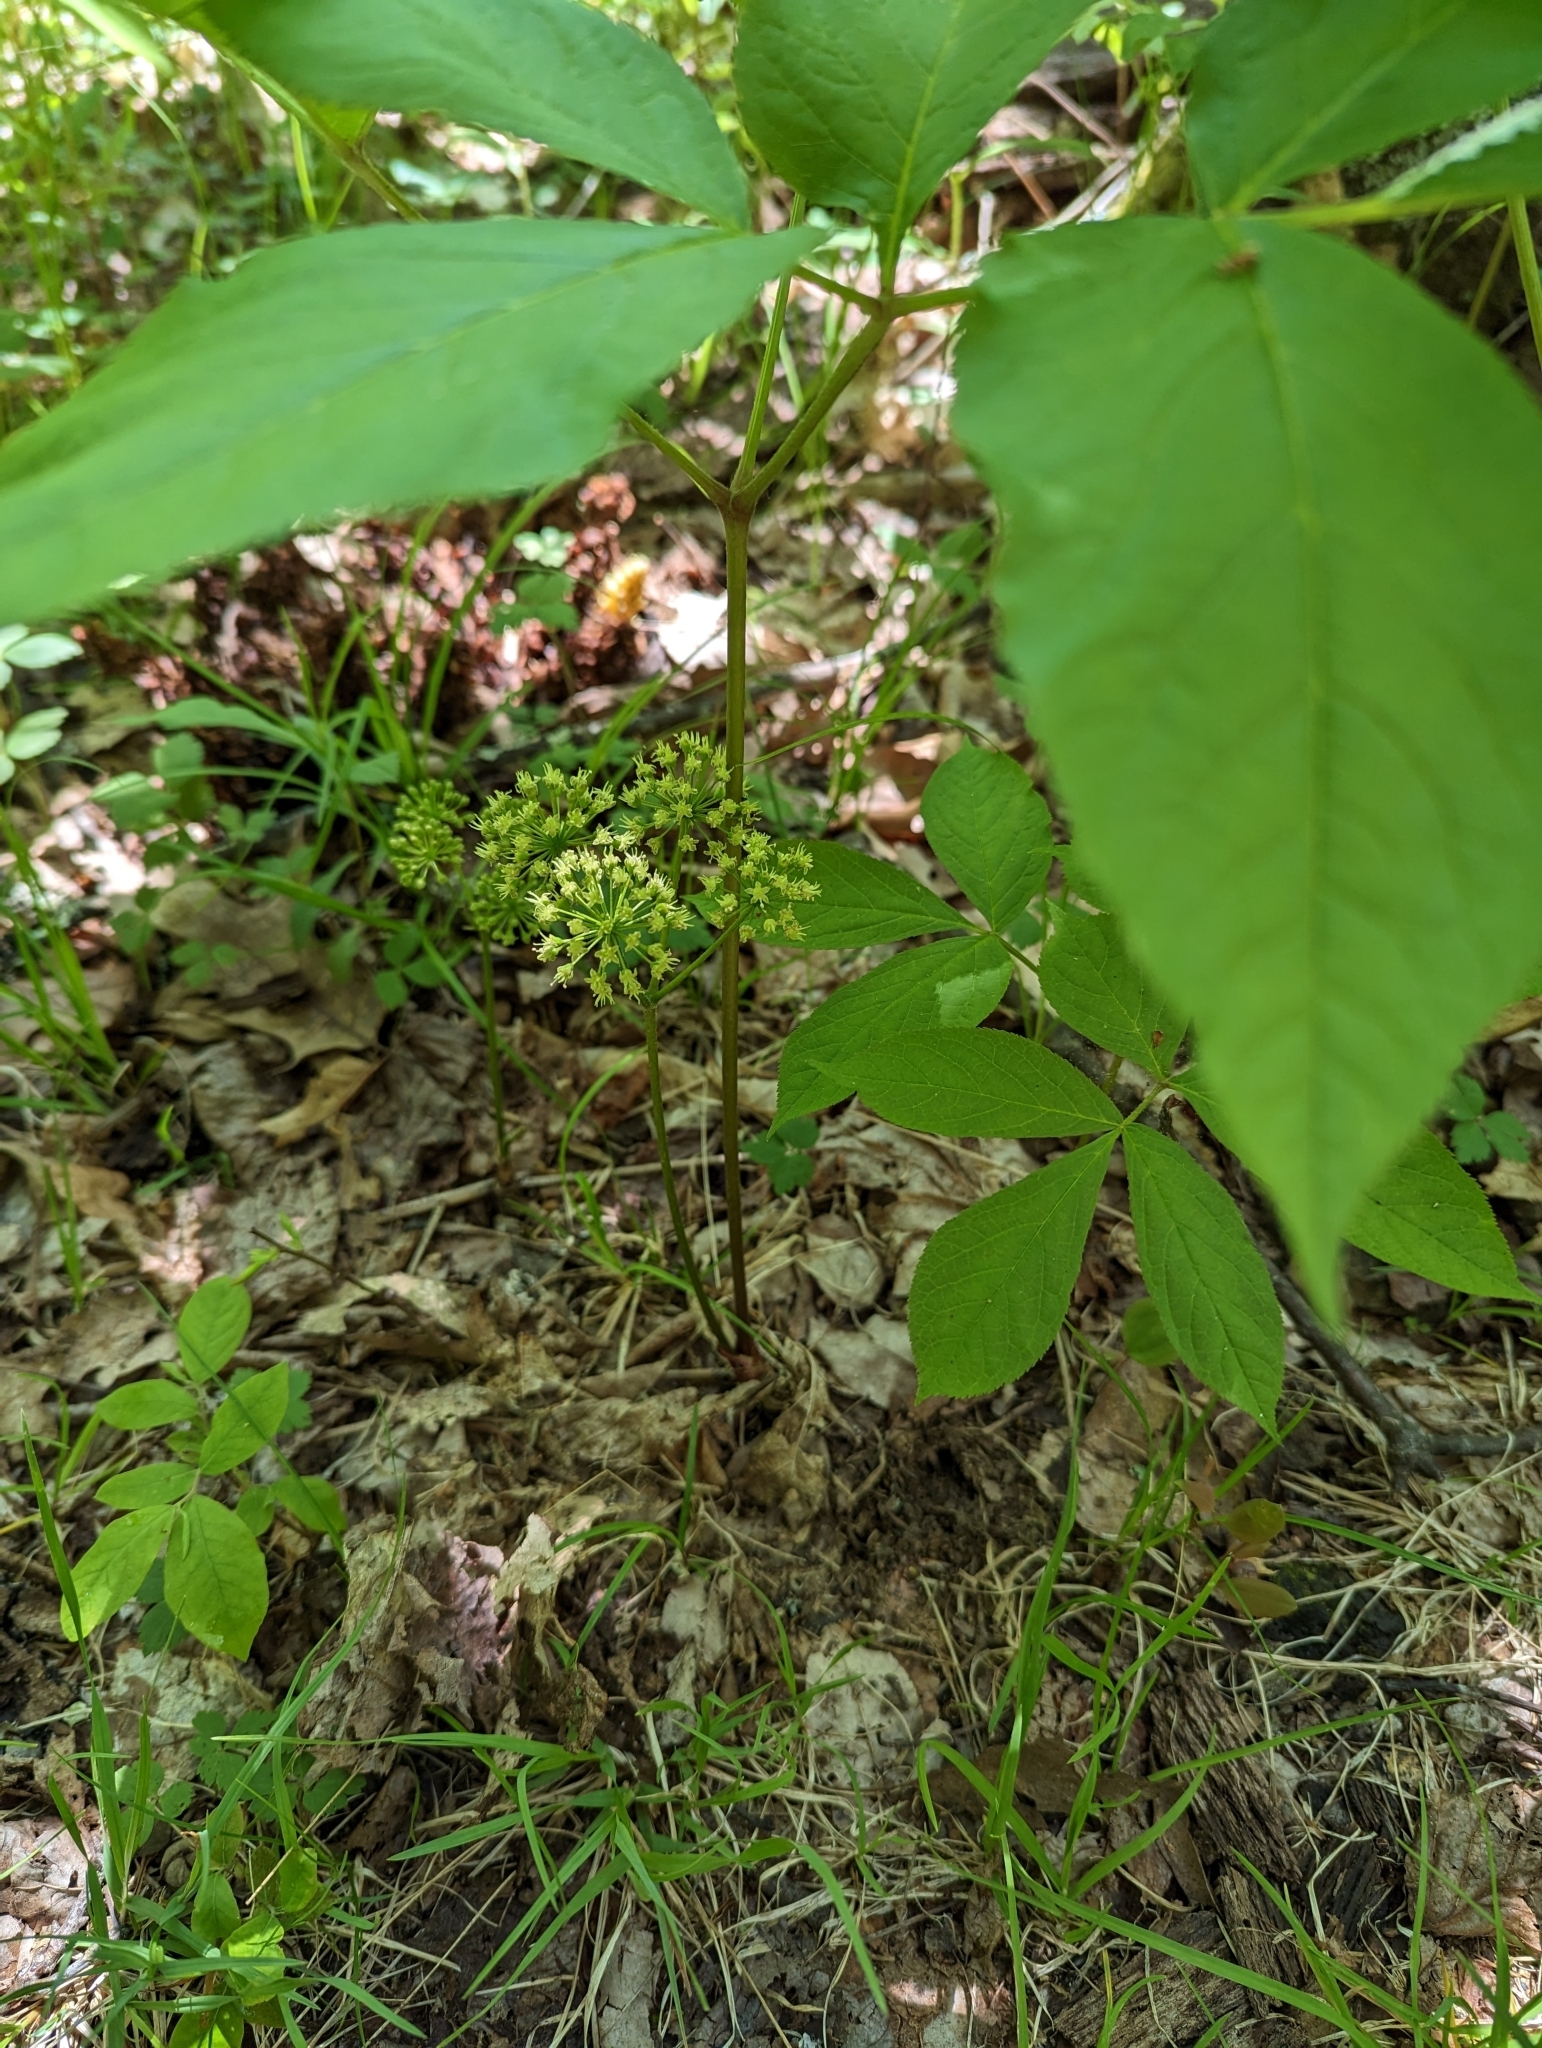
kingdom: Plantae
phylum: Tracheophyta
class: Magnoliopsida
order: Apiales
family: Araliaceae
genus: Aralia
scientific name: Aralia nudicaulis
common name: Wild sarsaparilla
